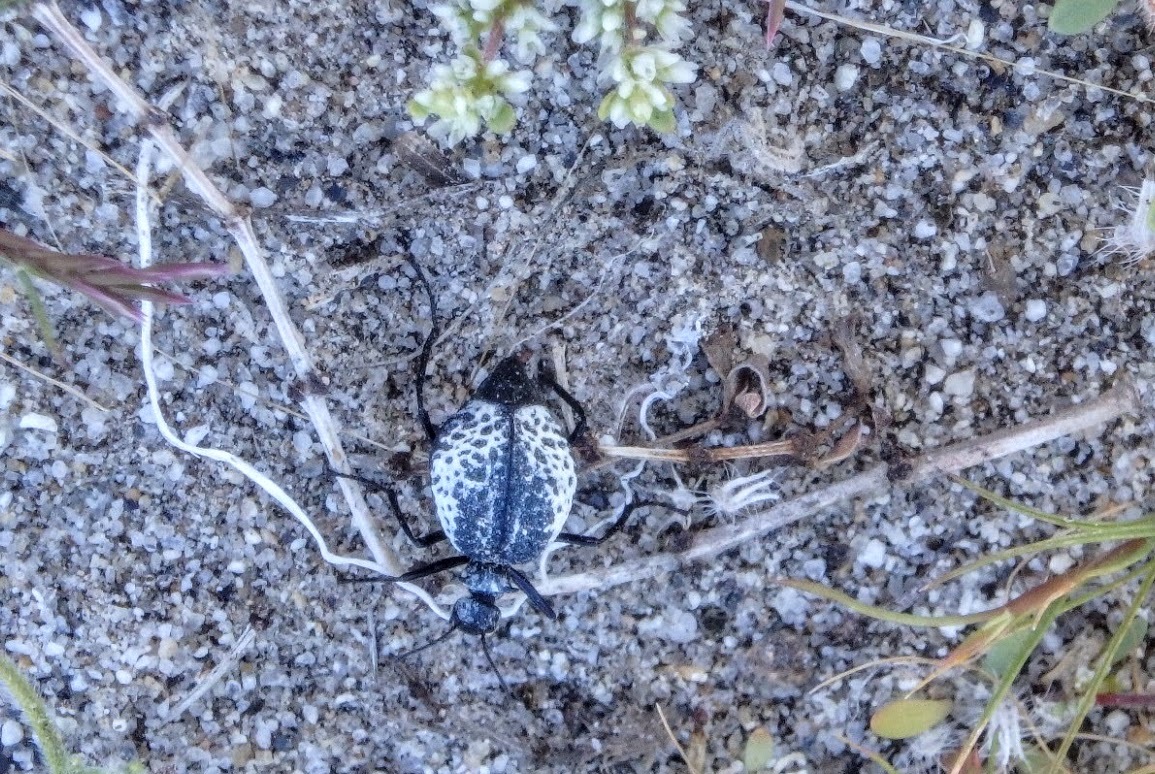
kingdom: Animalia
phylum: Arthropoda
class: Insecta
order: Coleoptera
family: Meloidae
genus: Cysteodemus
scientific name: Cysteodemus armatus
